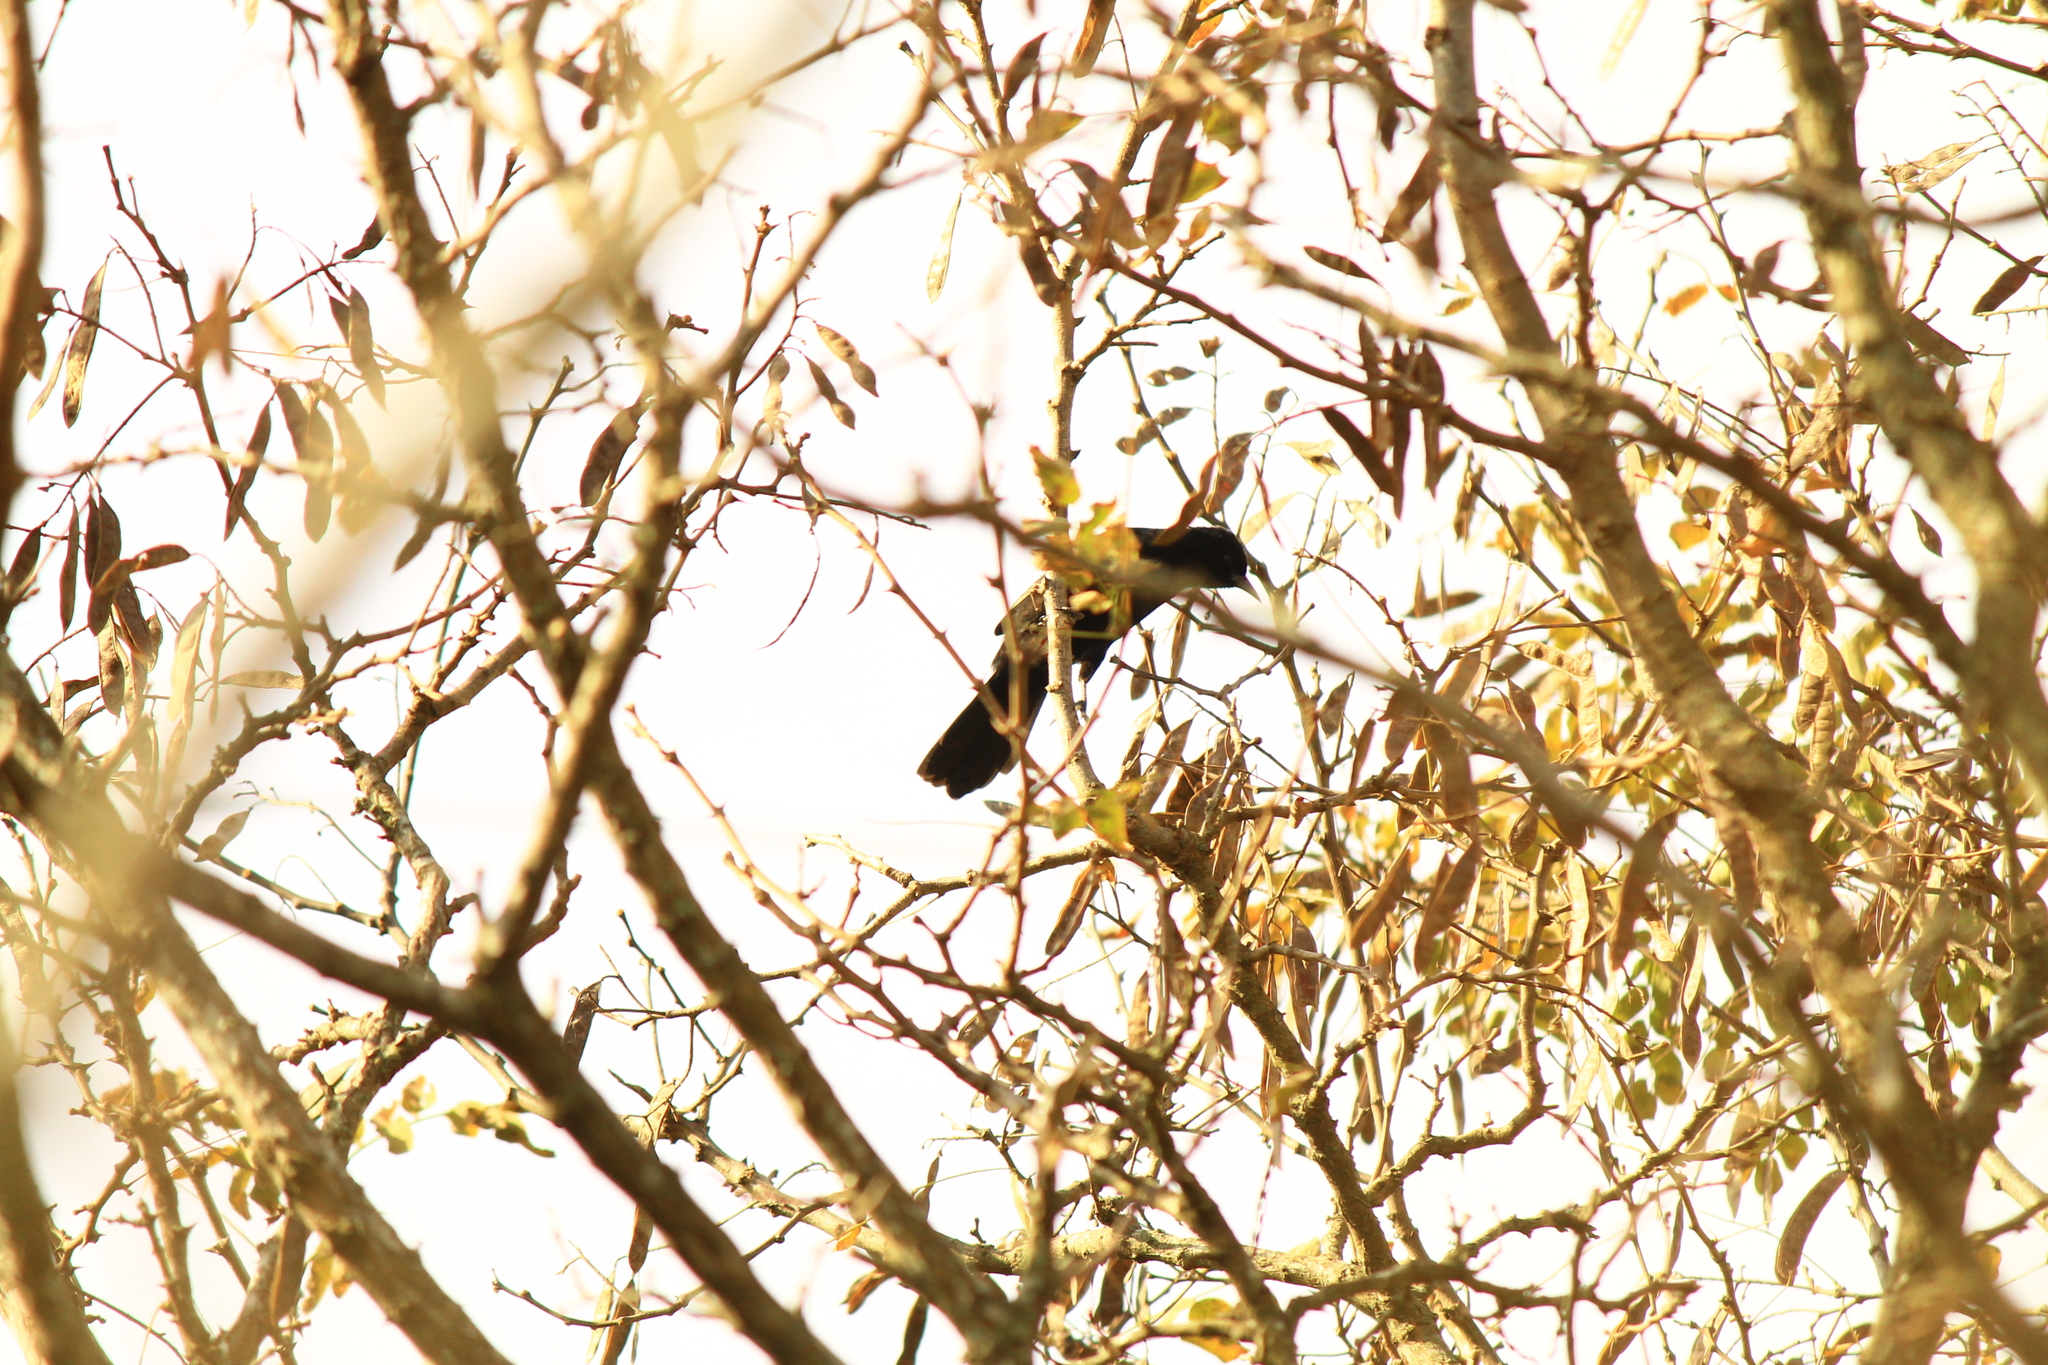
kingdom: Animalia
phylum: Chordata
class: Aves
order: Passeriformes
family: Icteridae
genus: Icterus
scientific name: Icterus cayanensis
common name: Epaulet oriole
